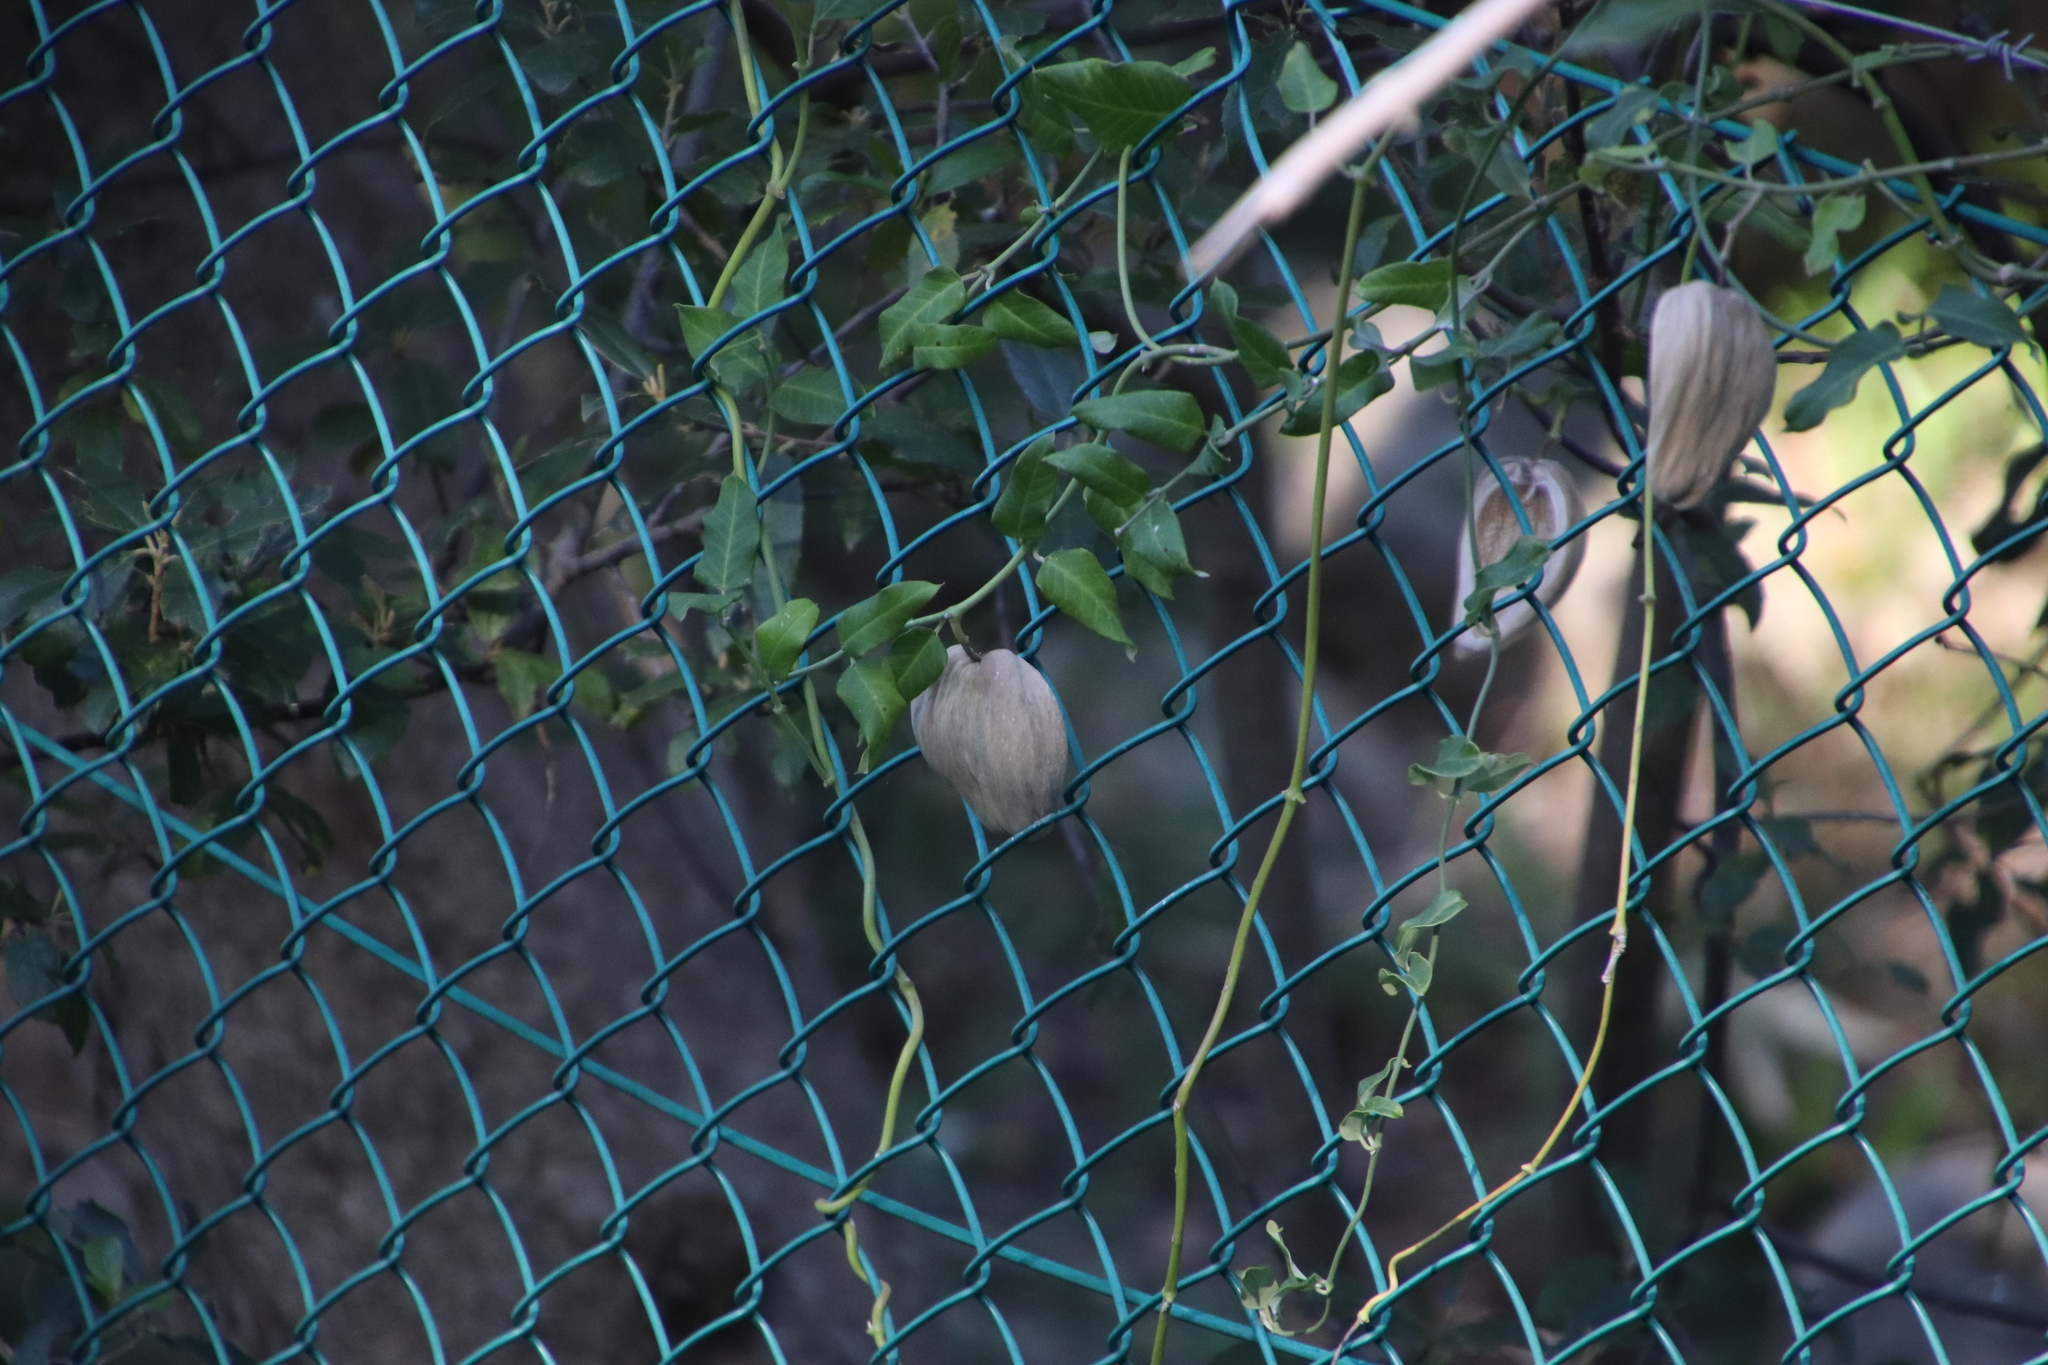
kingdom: Plantae
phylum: Tracheophyta
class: Magnoliopsida
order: Gentianales
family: Apocynaceae
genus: Araujia
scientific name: Araujia sericifera
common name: White bladderflower
